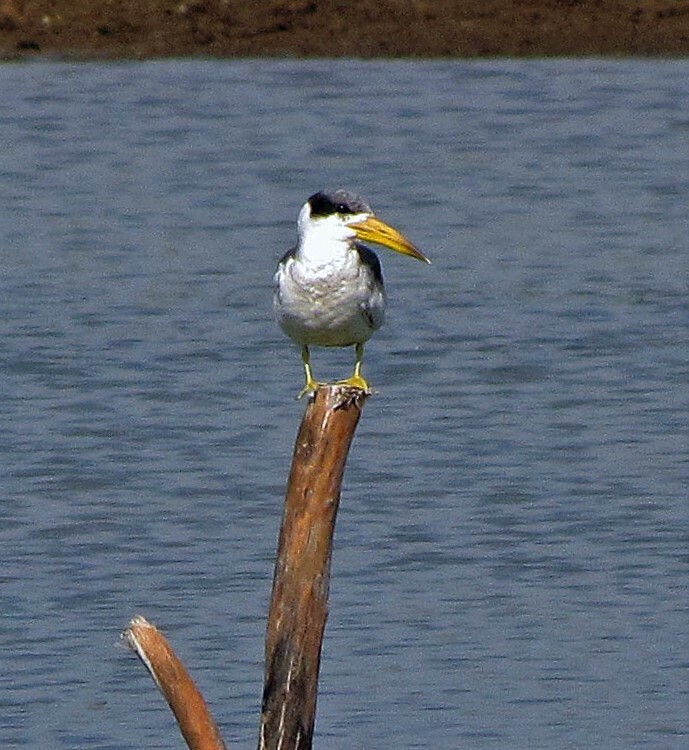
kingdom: Animalia
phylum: Chordata
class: Aves
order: Charadriiformes
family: Laridae
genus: Phaetusa
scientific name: Phaetusa simplex
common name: Large-billed tern
